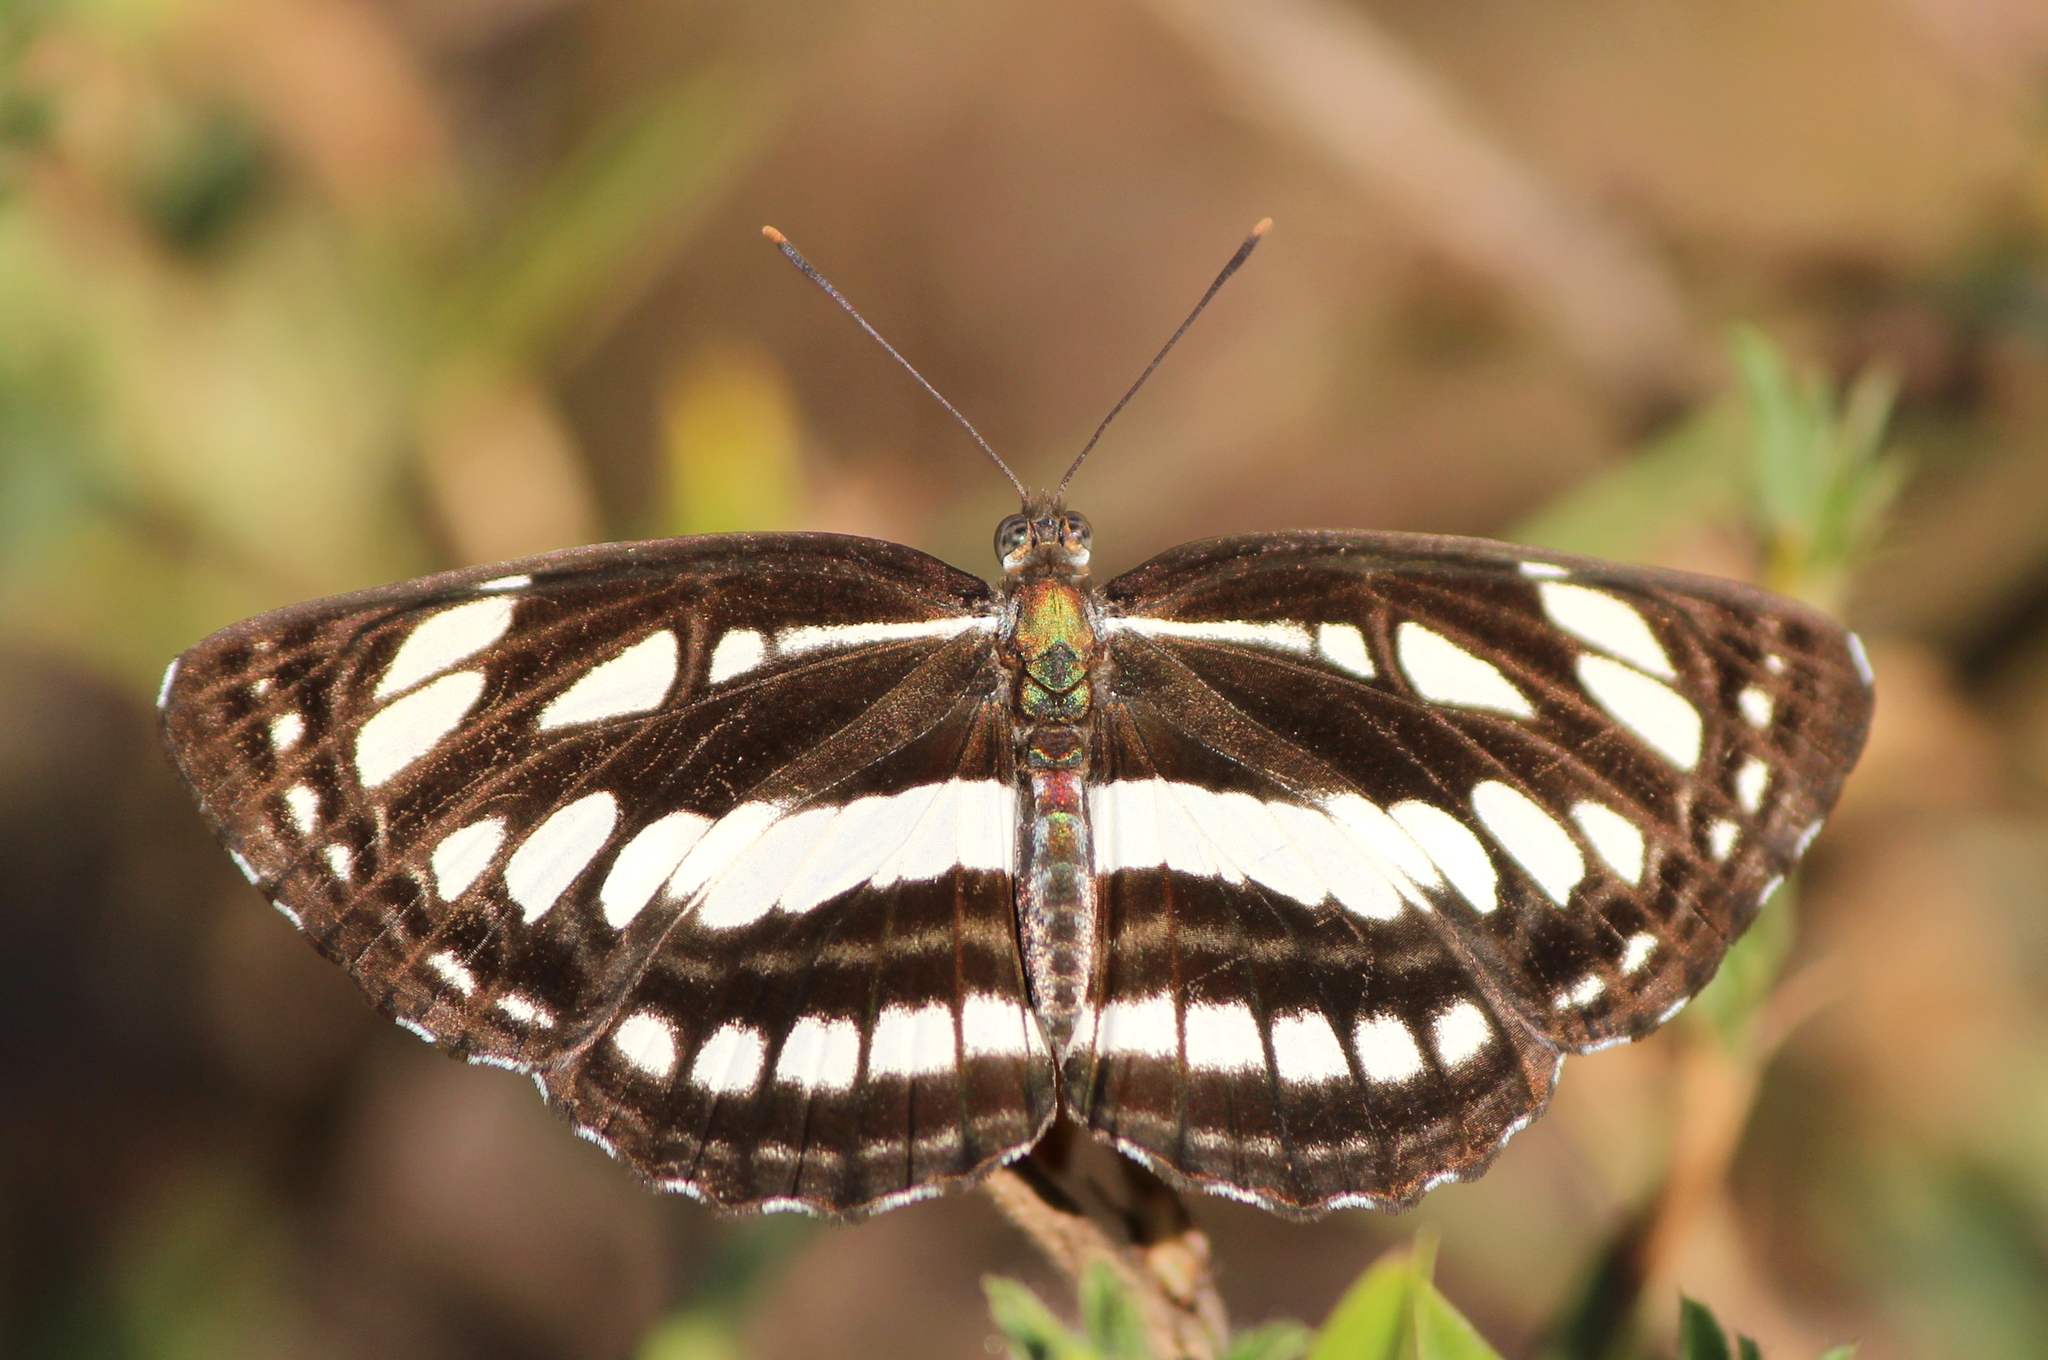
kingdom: Animalia
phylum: Arthropoda
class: Insecta
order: Lepidoptera
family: Nymphalidae
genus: Neptis
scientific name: Neptis hylas
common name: Common sailer
